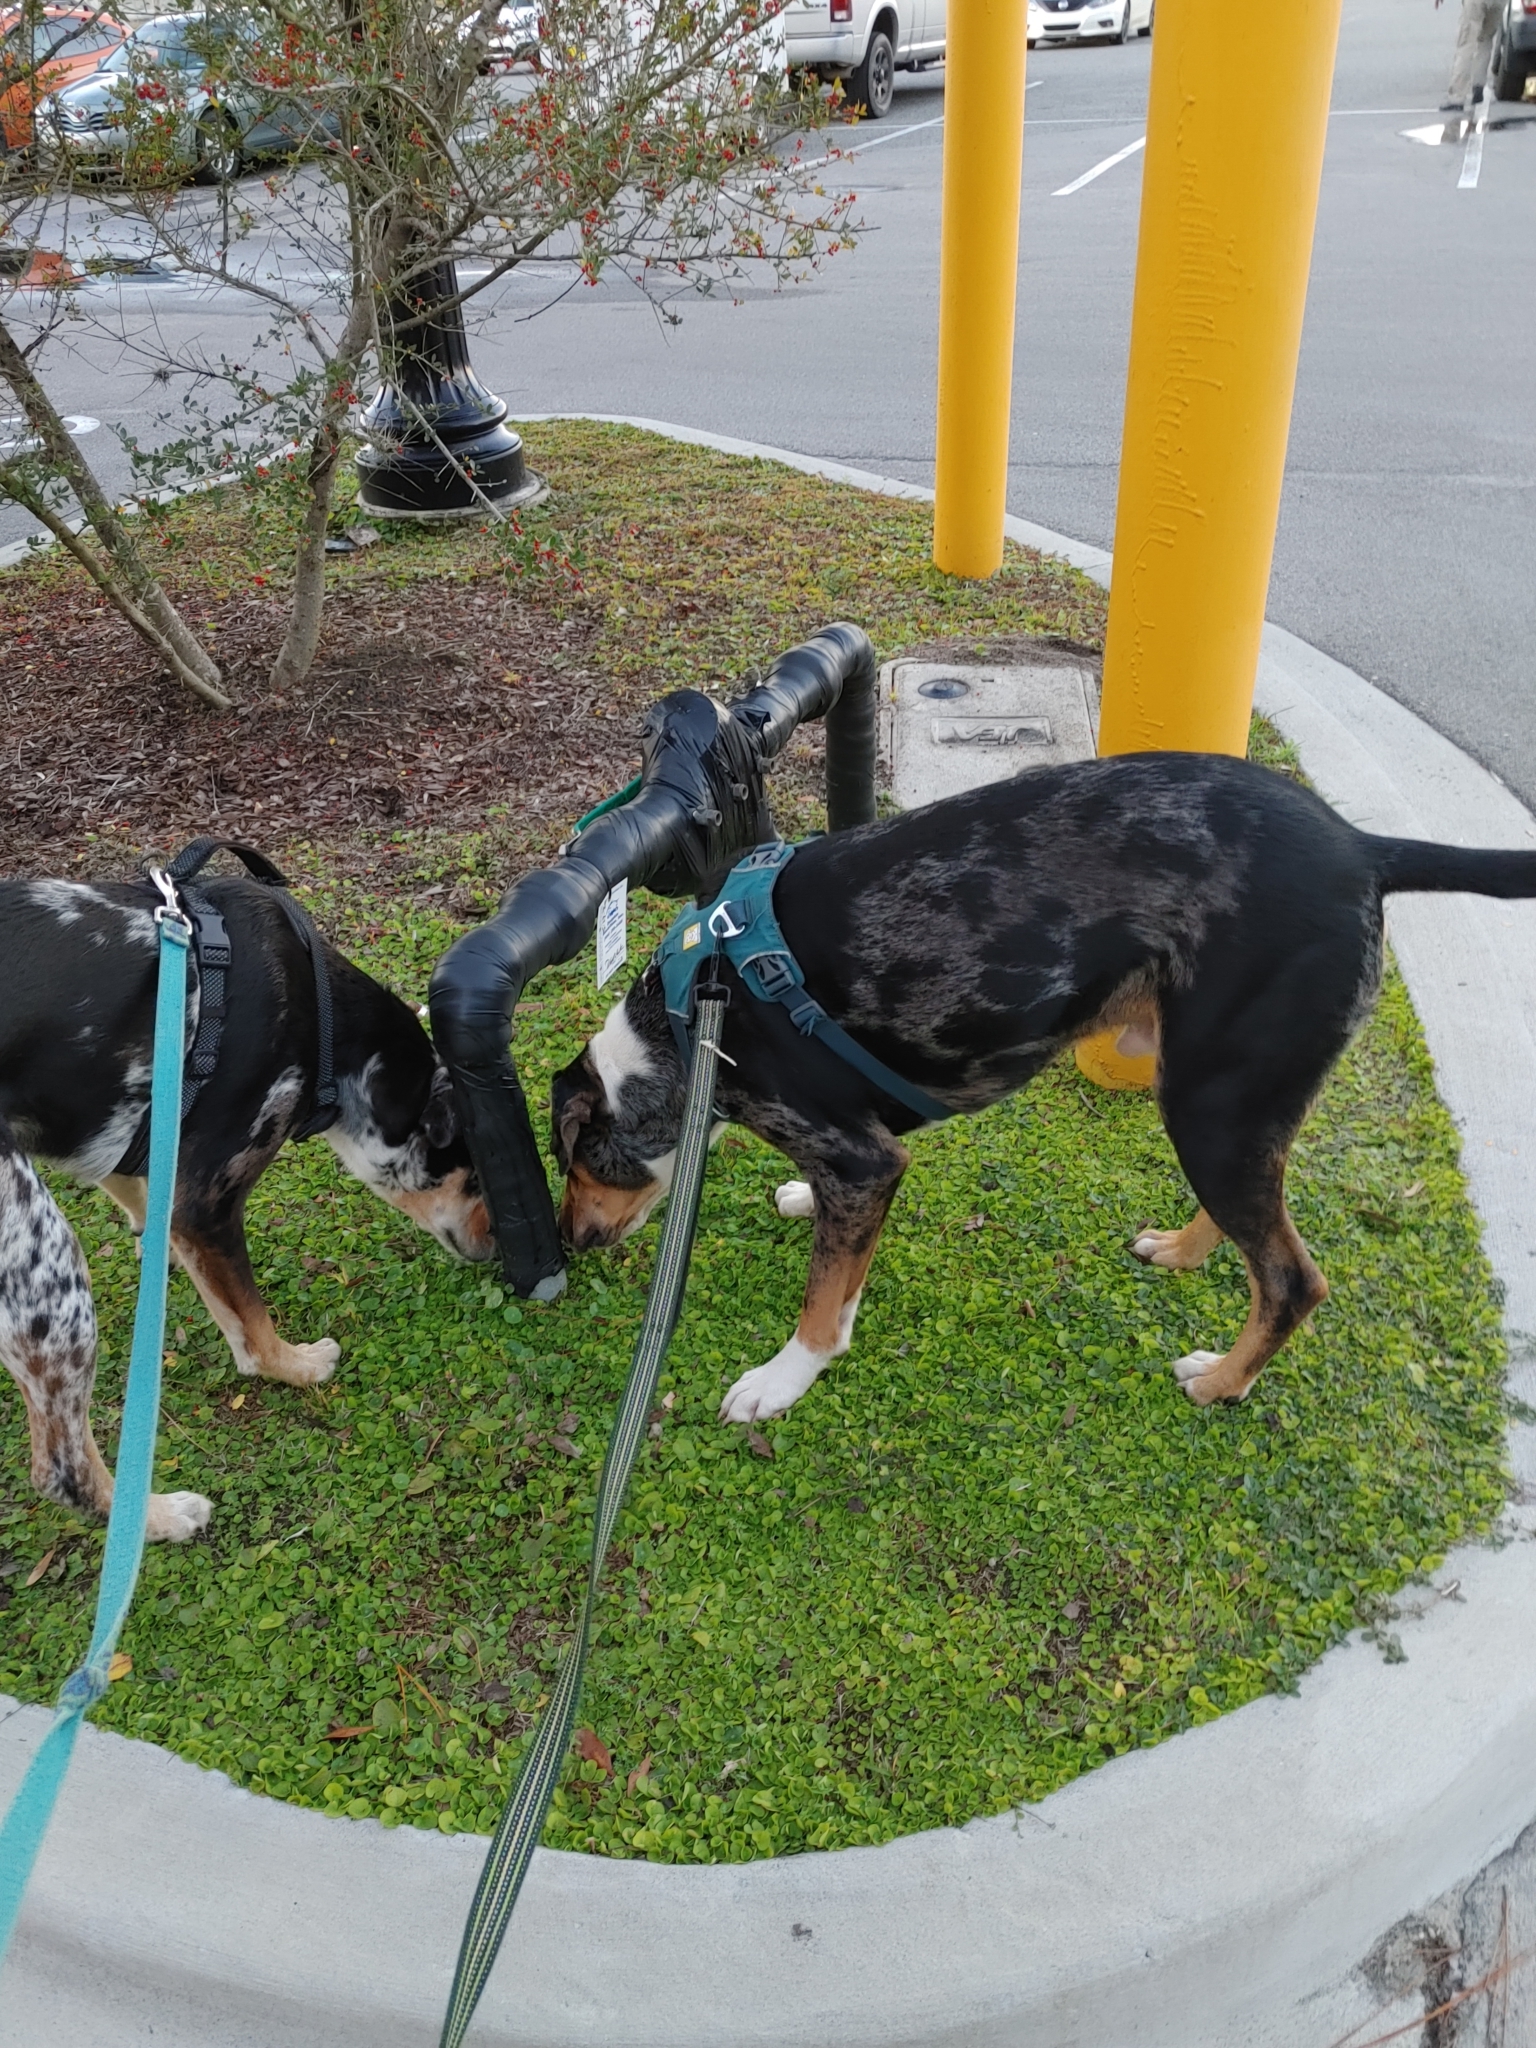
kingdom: Plantae
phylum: Tracheophyta
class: Magnoliopsida
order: Apiales
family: Apiaceae
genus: Centella
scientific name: Centella asiatica
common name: Spadeleaf
